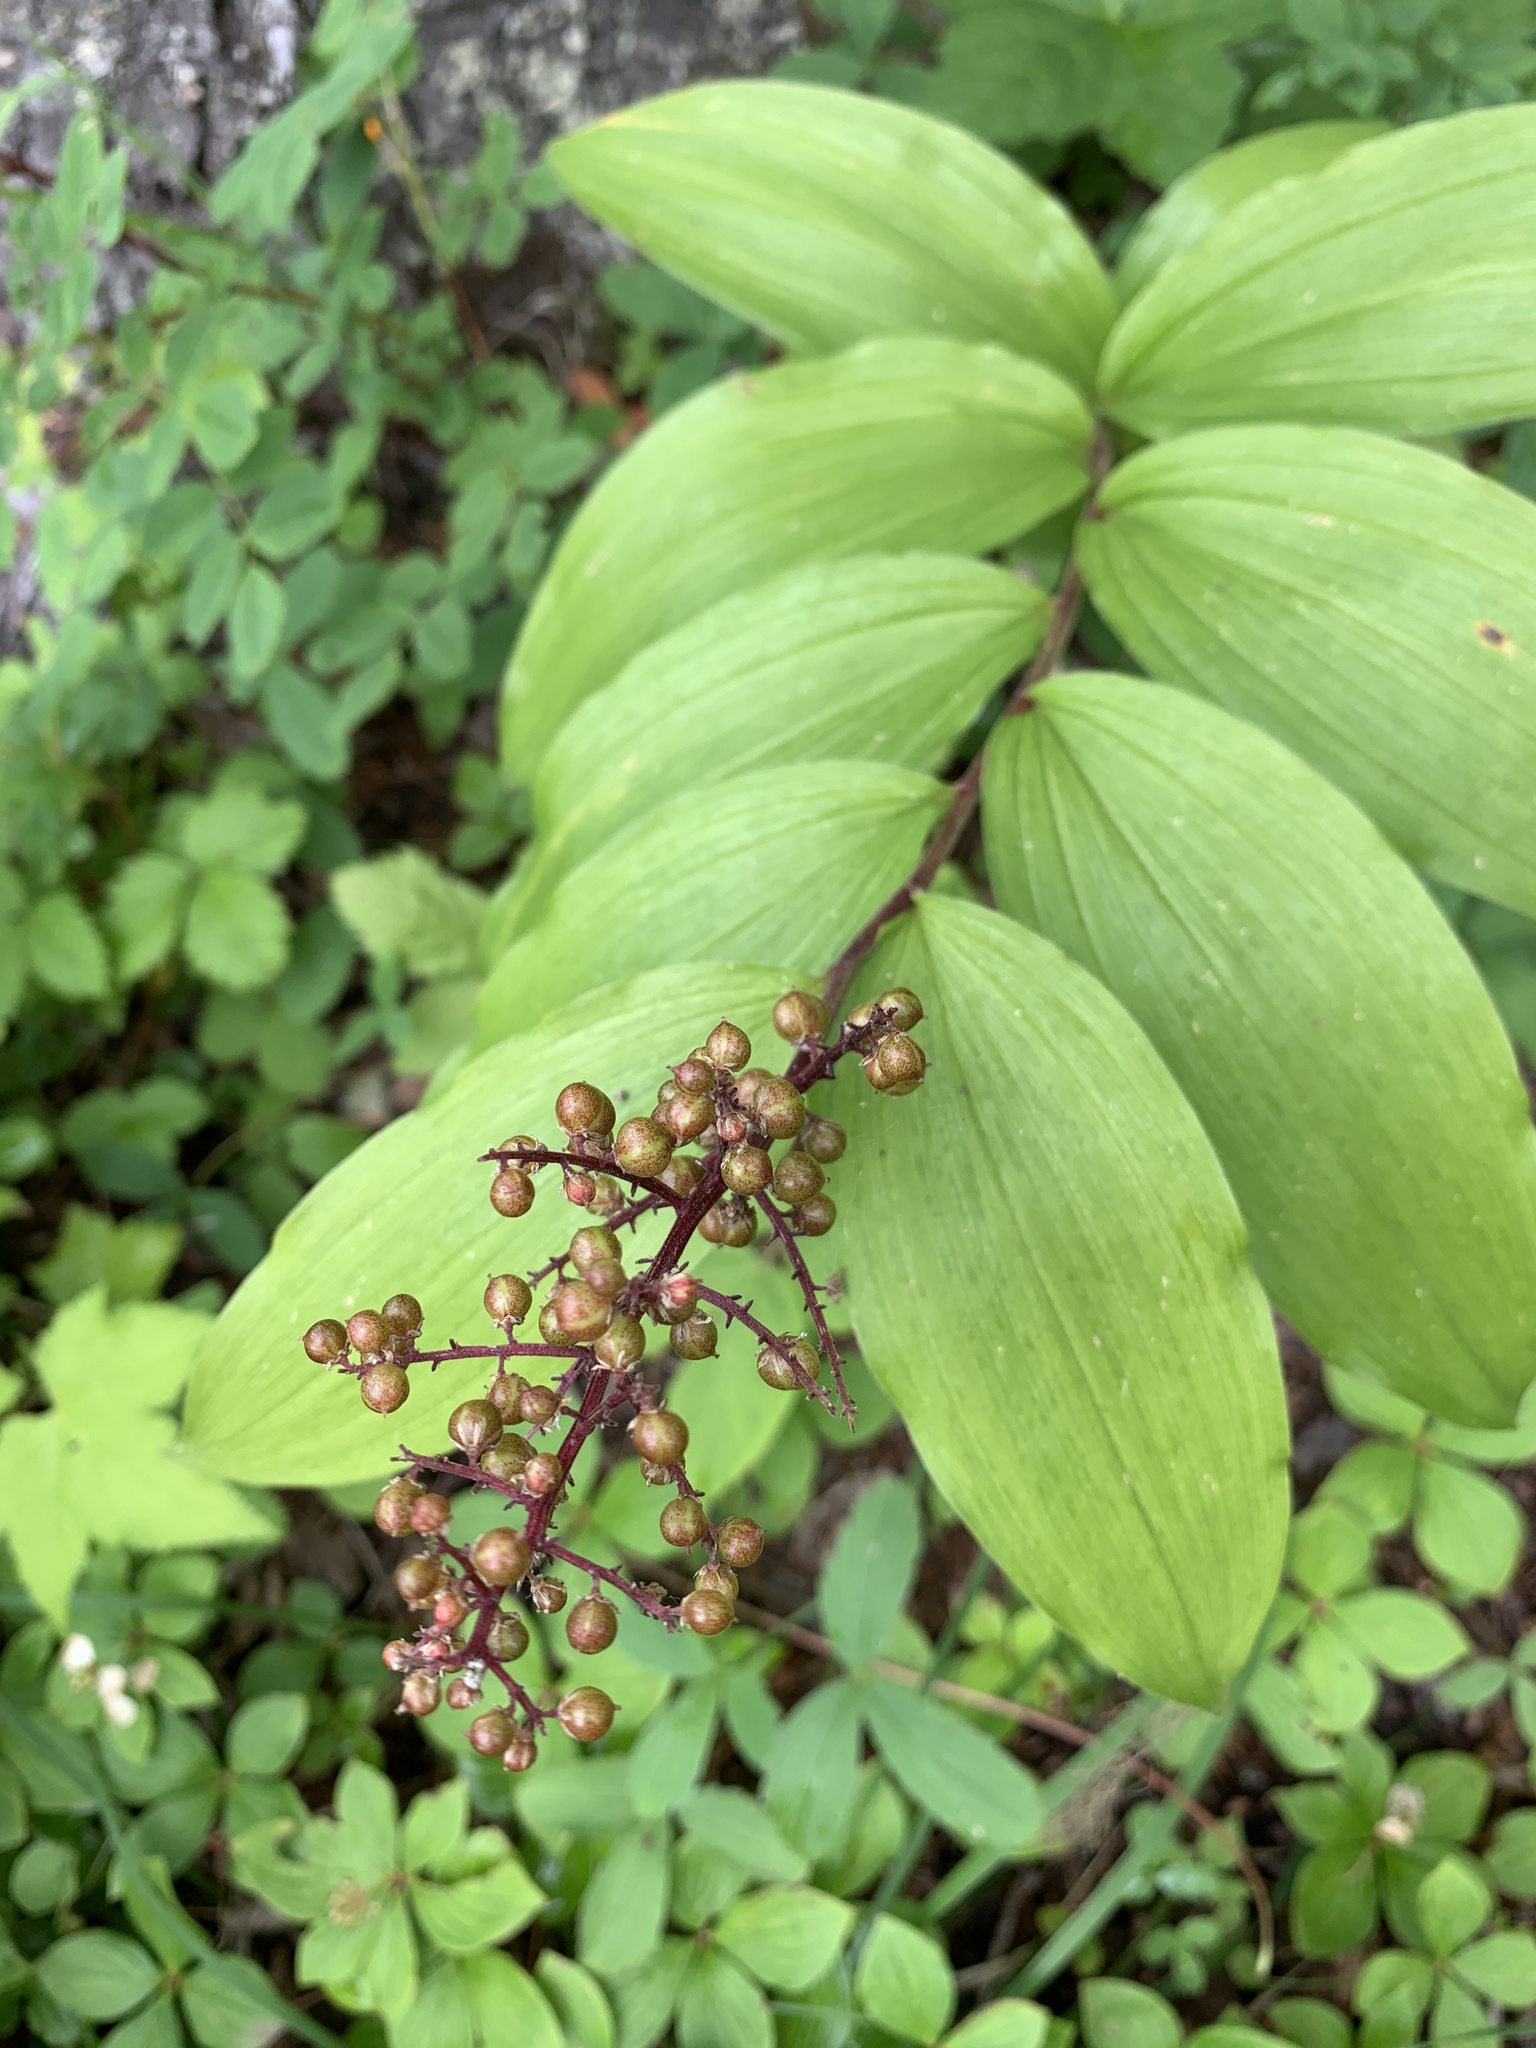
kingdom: Plantae
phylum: Tracheophyta
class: Liliopsida
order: Asparagales
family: Asparagaceae
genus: Maianthemum
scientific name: Maianthemum racemosum
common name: False spikenard
